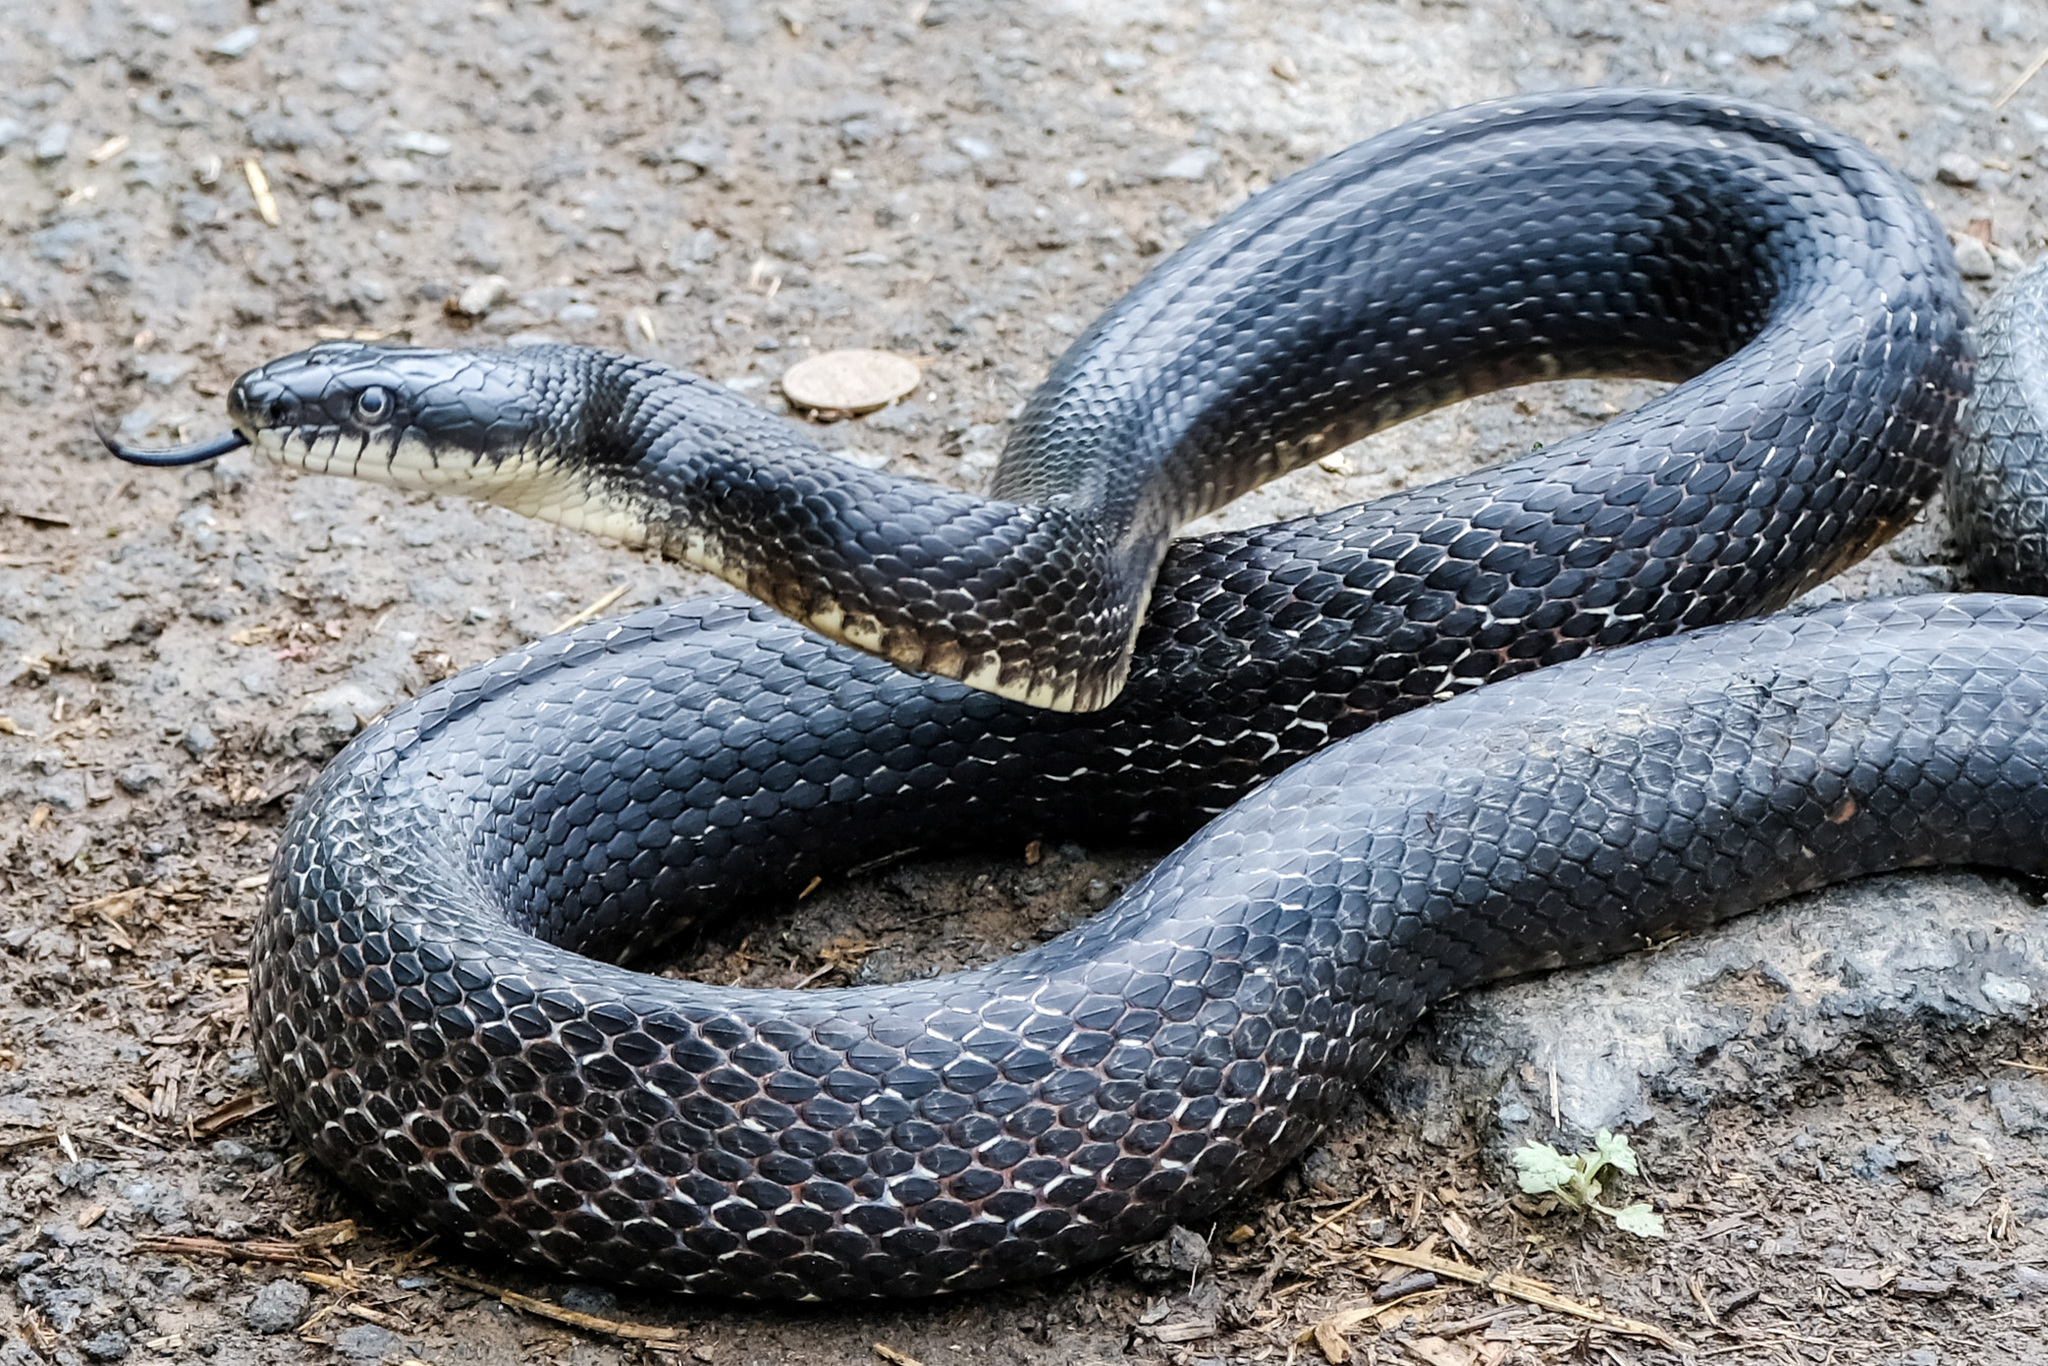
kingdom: Animalia
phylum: Chordata
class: Squamata
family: Colubridae
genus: Pantherophis
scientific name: Pantherophis alleghaniensis
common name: Eastern rat snake
